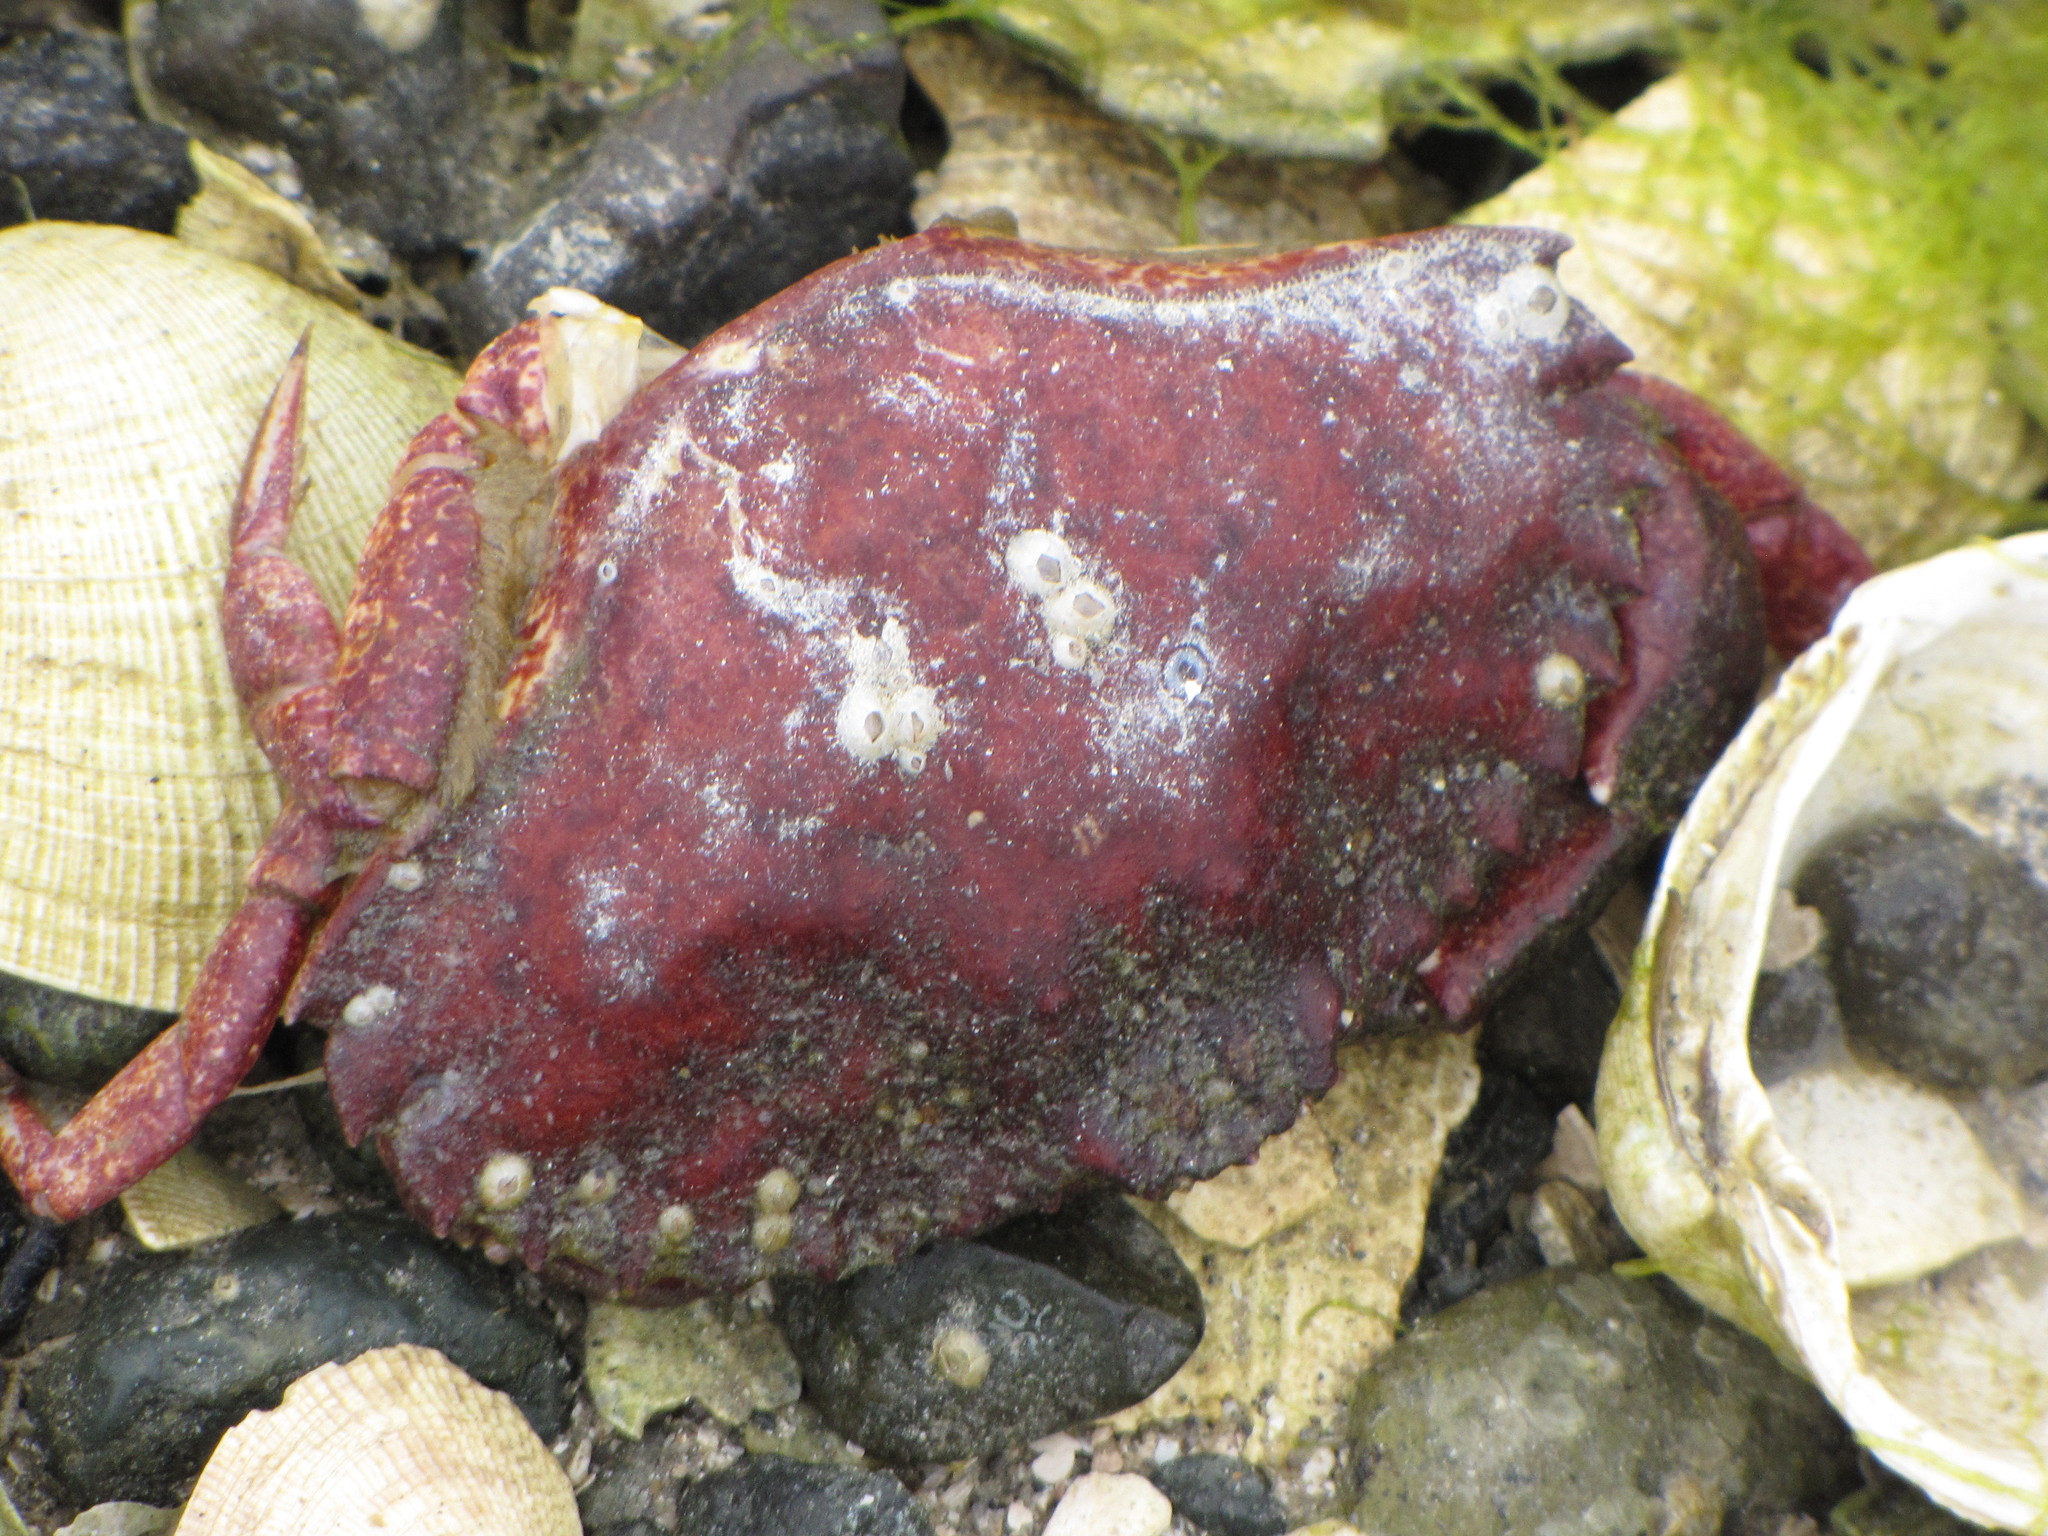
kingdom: Animalia
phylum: Arthropoda
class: Malacostraca
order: Decapoda
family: Cancridae
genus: Cancer
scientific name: Cancer productus
